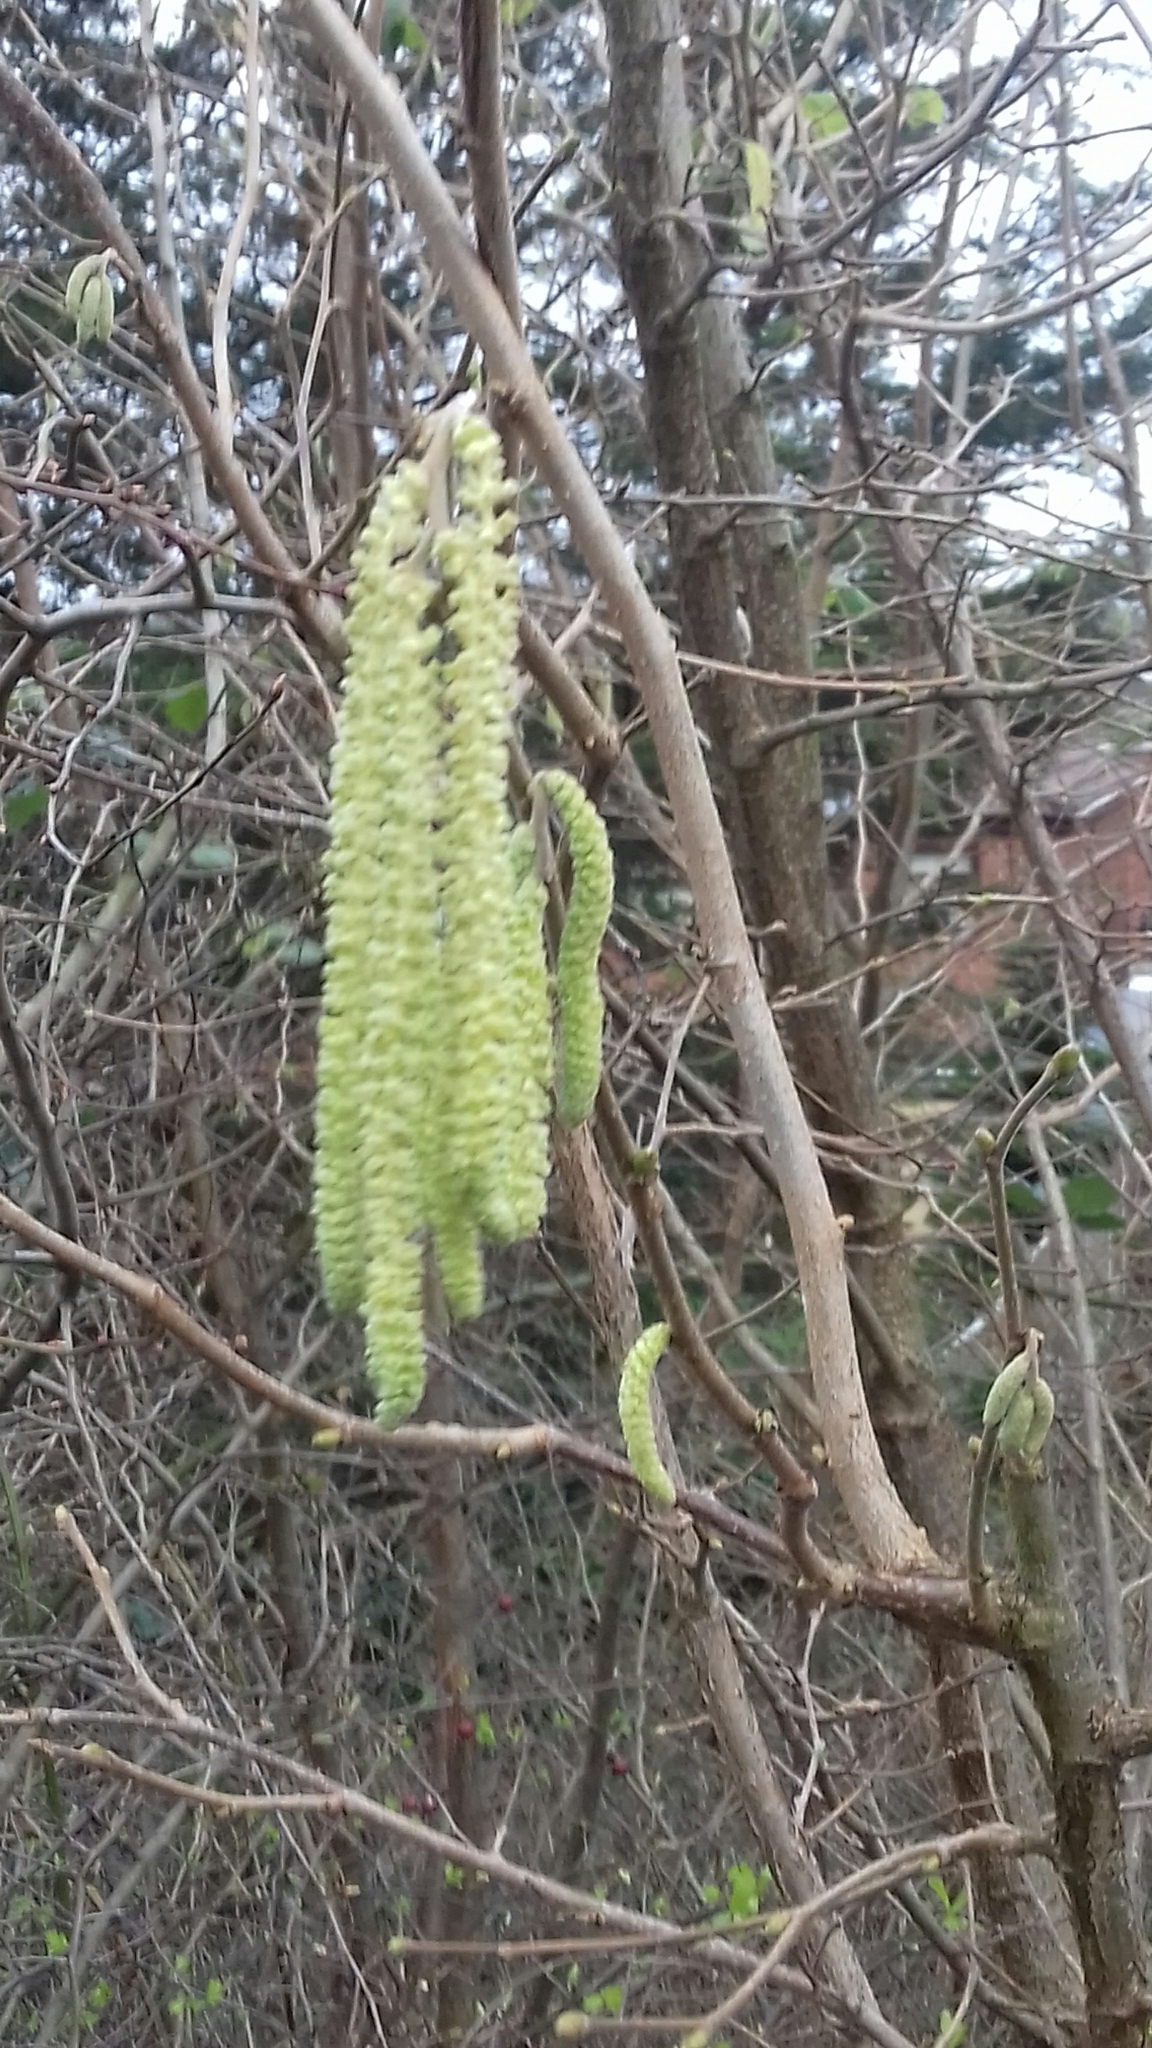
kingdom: Plantae
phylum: Tracheophyta
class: Magnoliopsida
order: Fagales
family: Betulaceae
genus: Corylus
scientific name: Corylus avellana
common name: European hazel
